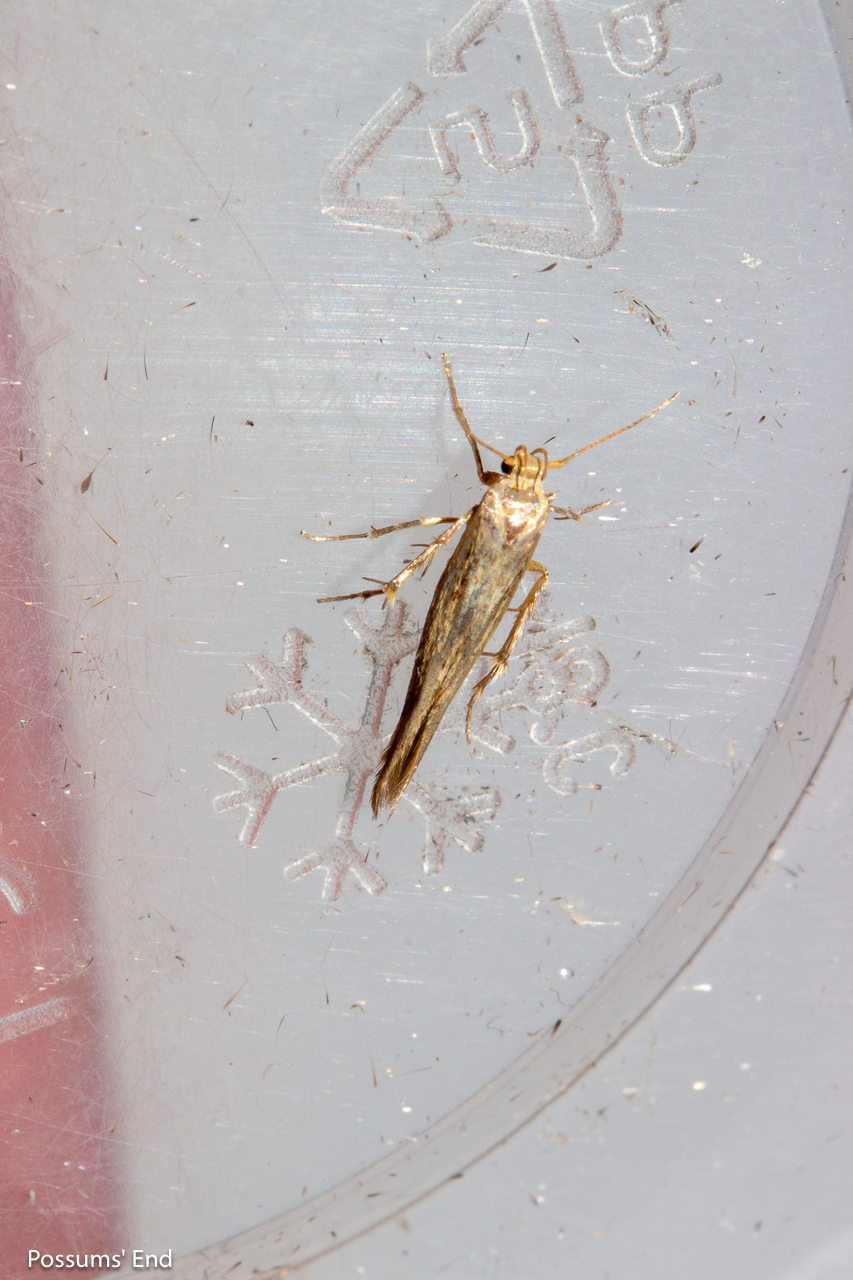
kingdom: Animalia
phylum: Arthropoda
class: Insecta
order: Lepidoptera
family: Stathmopodidae
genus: Stathmopoda
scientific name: Stathmopoda plumbiflua
